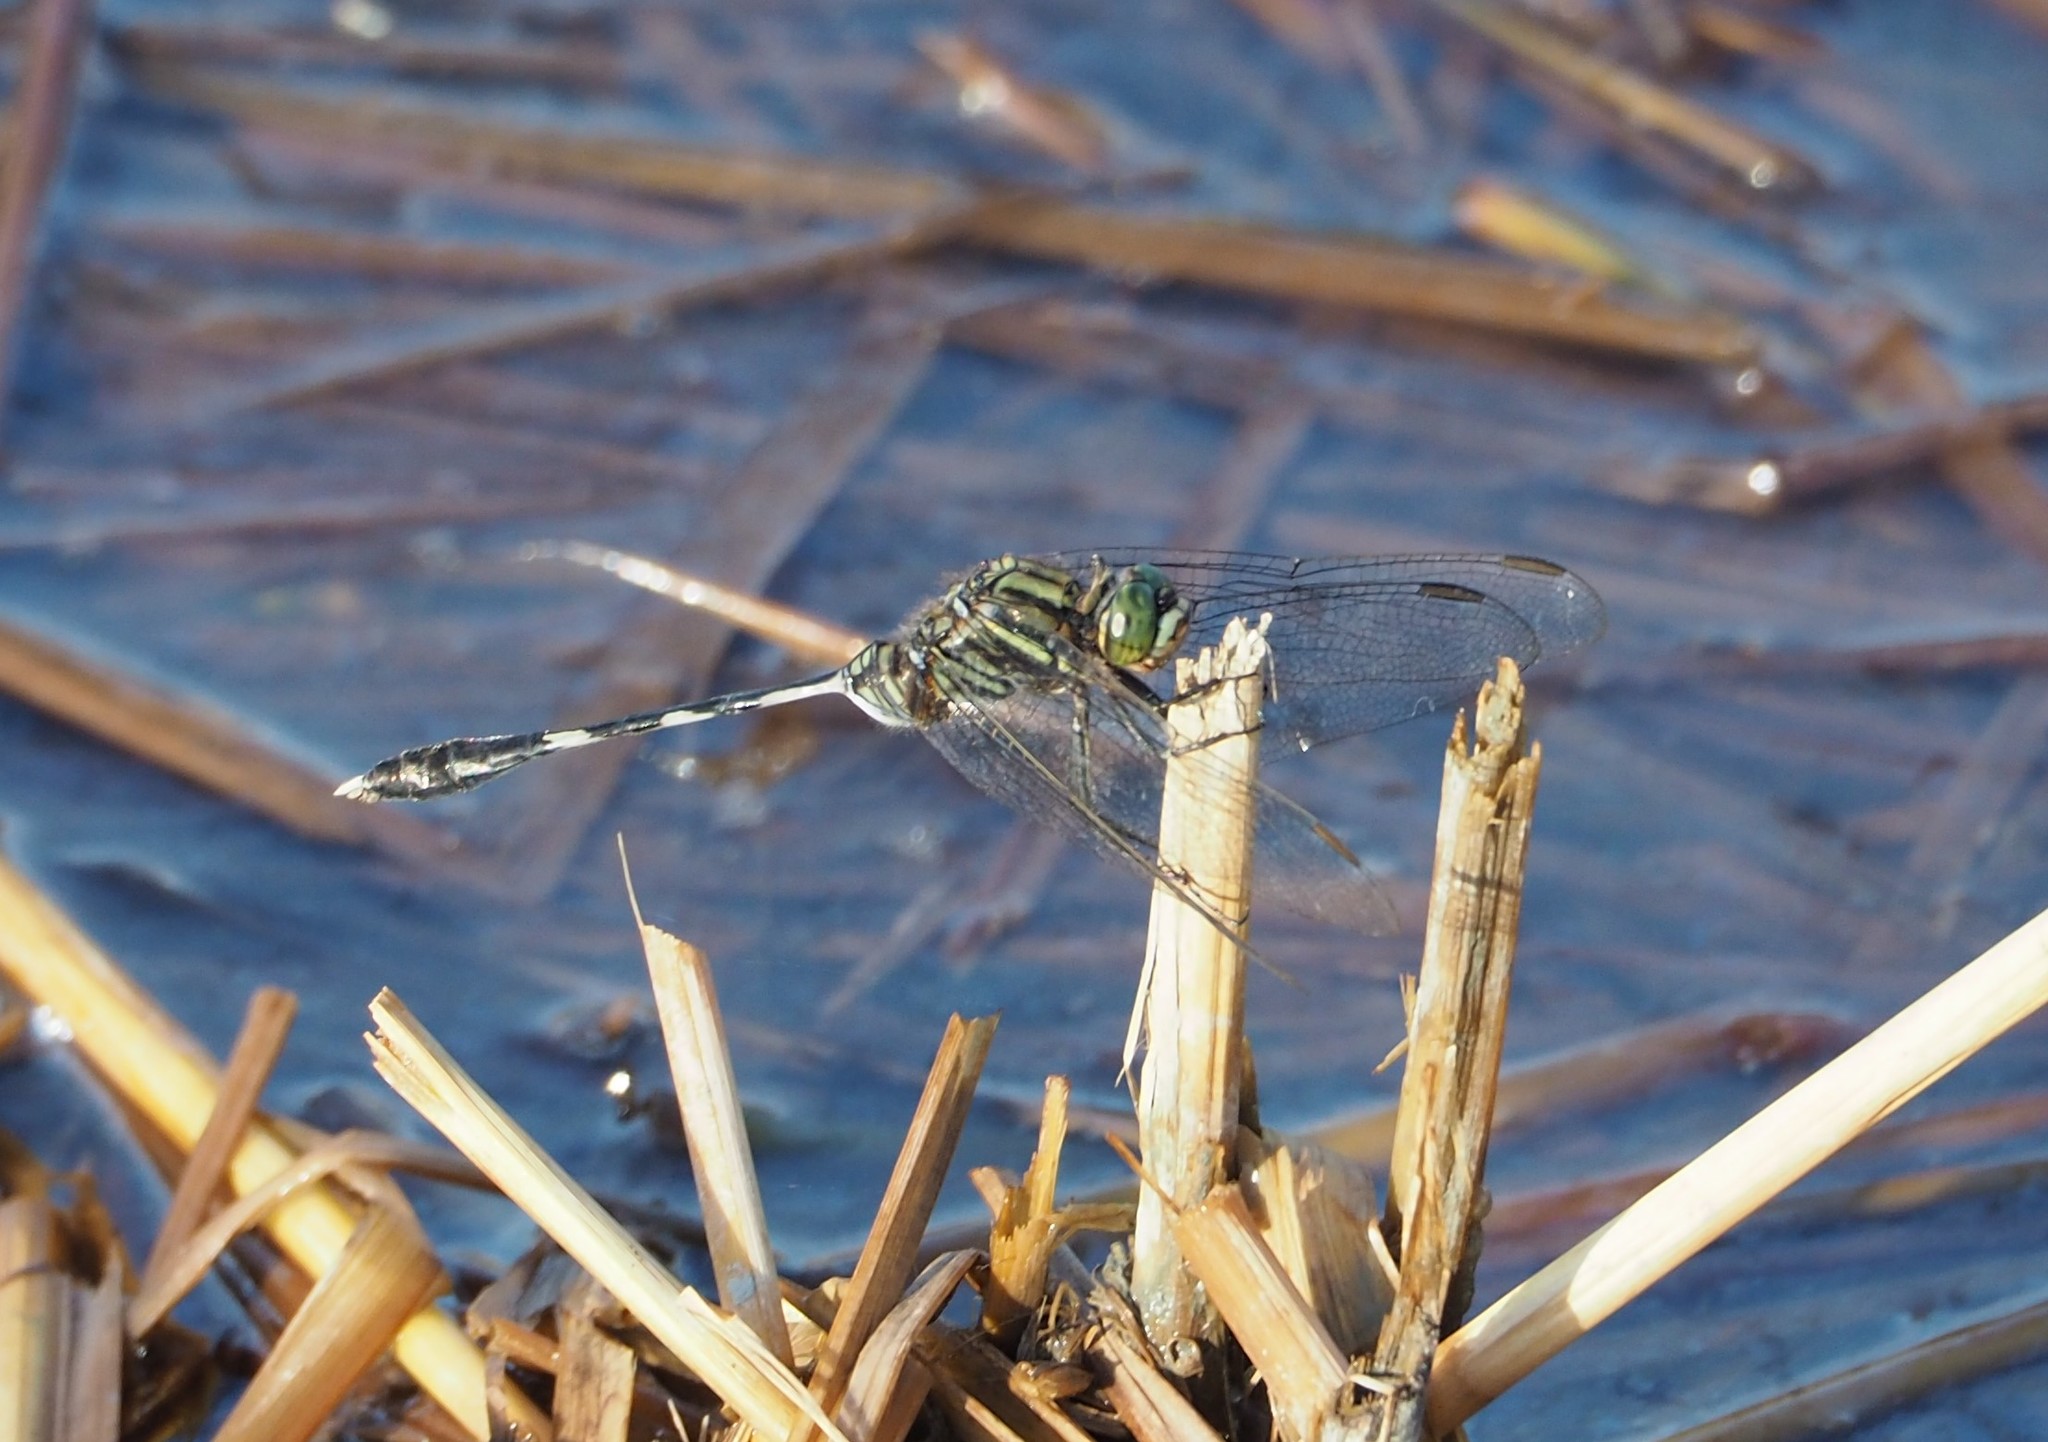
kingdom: Animalia
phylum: Arthropoda
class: Insecta
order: Odonata
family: Libellulidae
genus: Orthetrum
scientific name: Orthetrum sabina
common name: Slender skimmer
